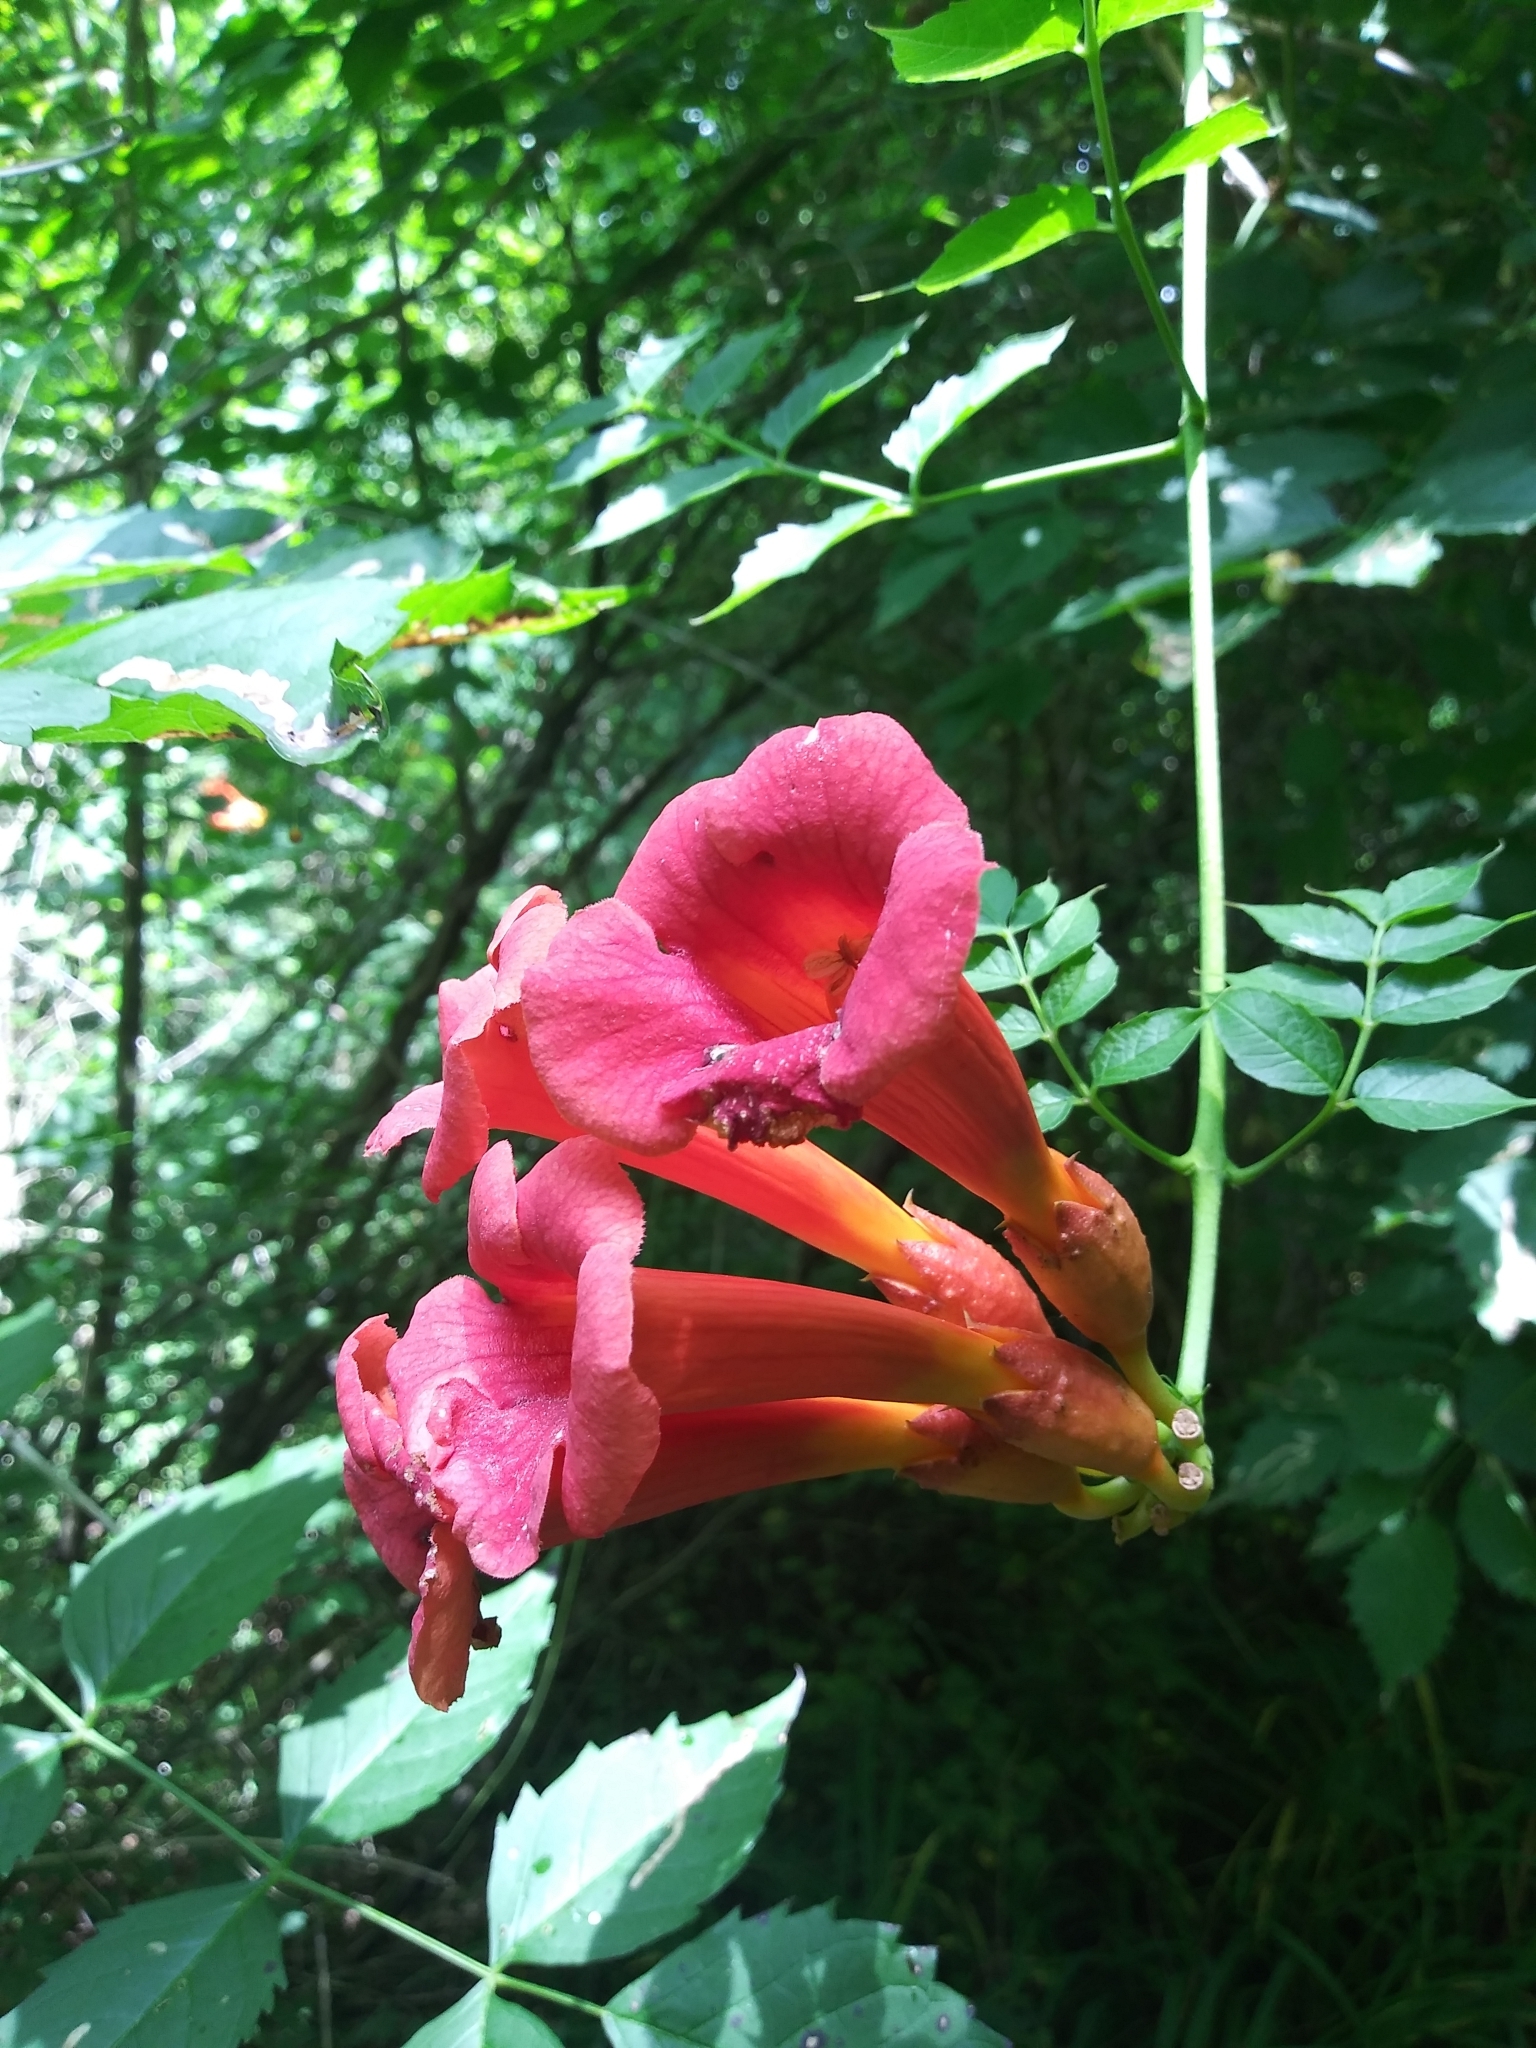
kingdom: Plantae
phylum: Tracheophyta
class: Magnoliopsida
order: Lamiales
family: Bignoniaceae
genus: Campsis
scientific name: Campsis radicans
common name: Trumpet-creeper
